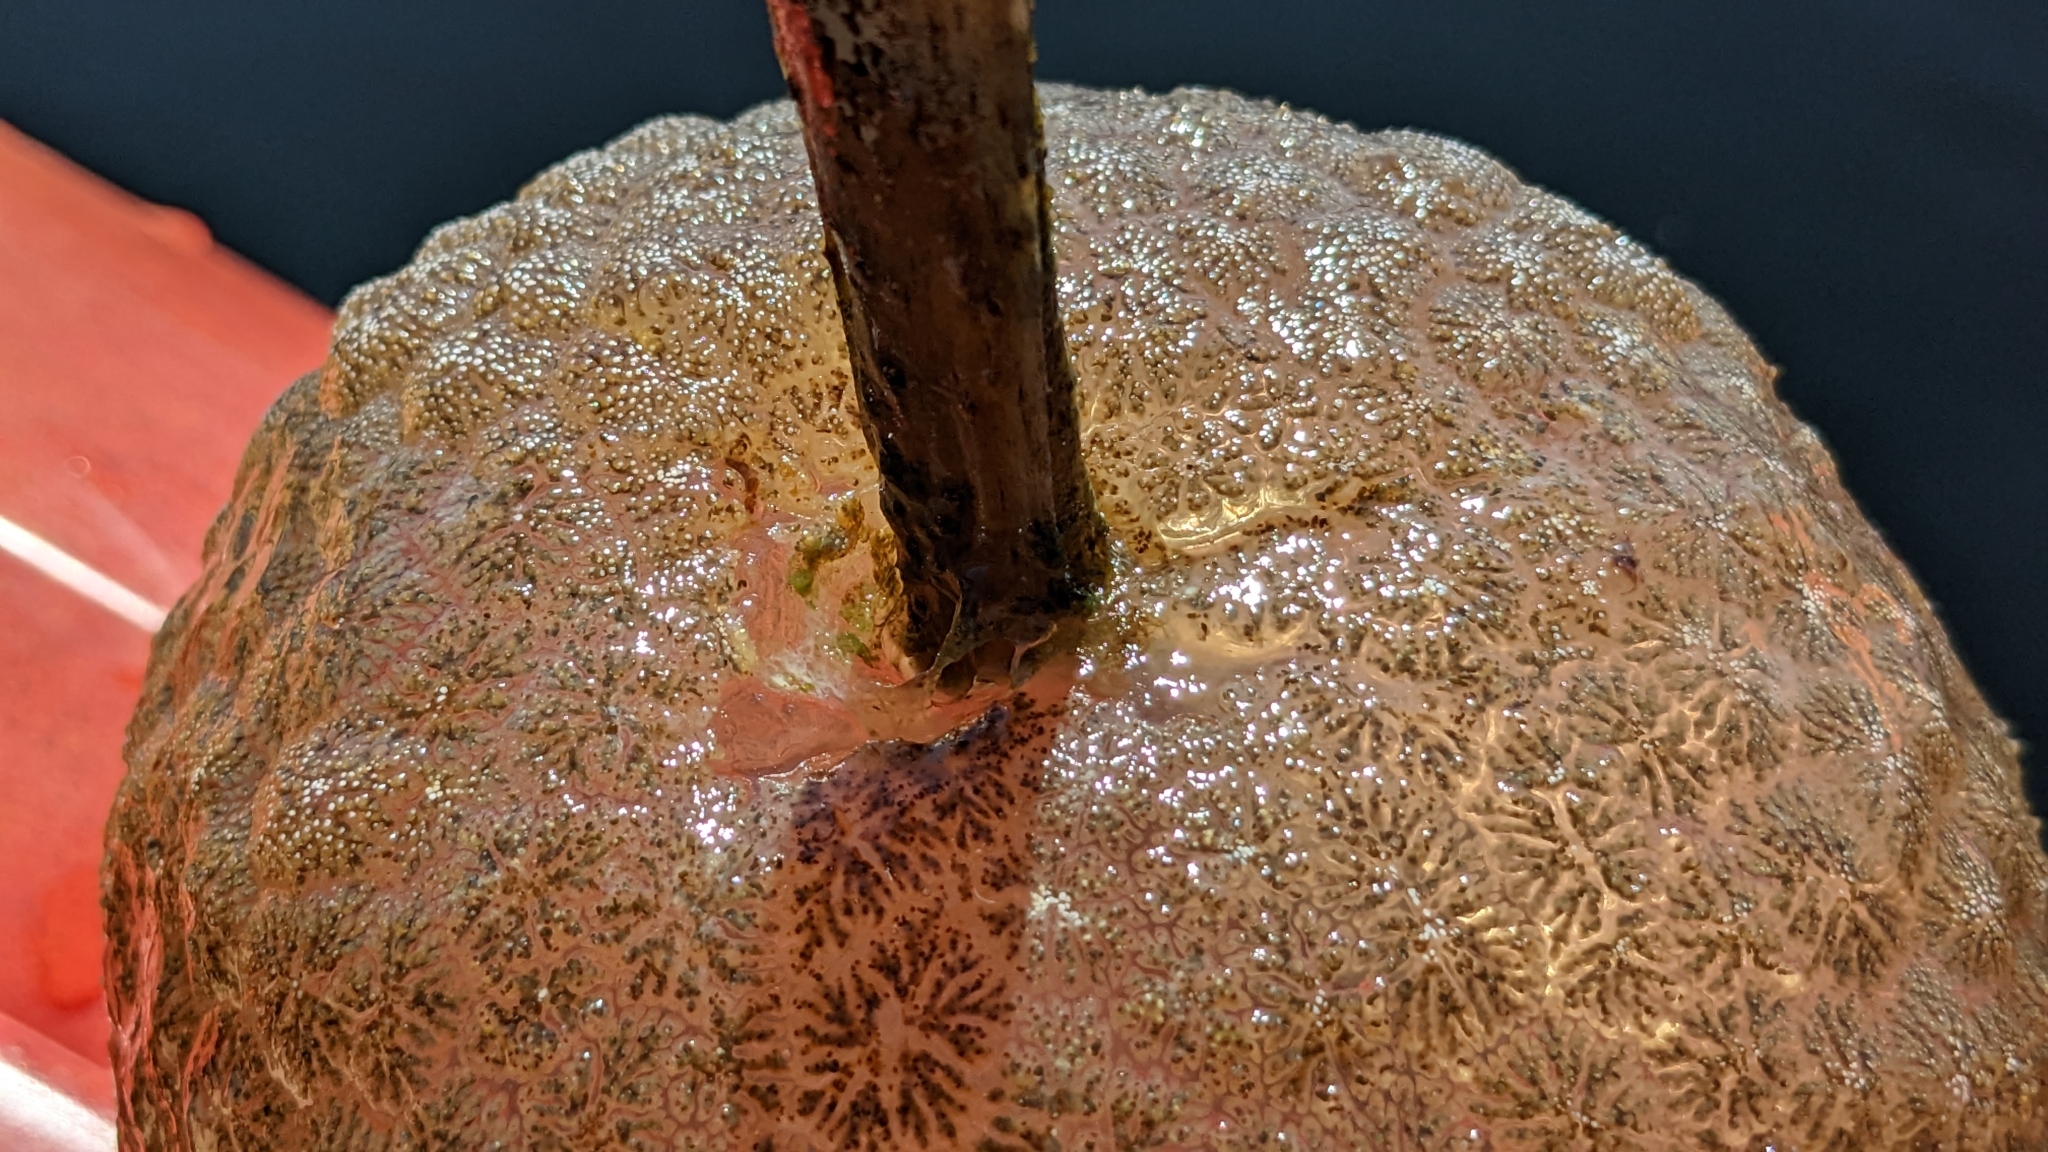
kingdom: Animalia
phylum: Bryozoa
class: Phylactolaemata
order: Plumatellida
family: Pectinatellidae
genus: Pectinatella
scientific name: Pectinatella magnifica
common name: Magnificent bryozoan
